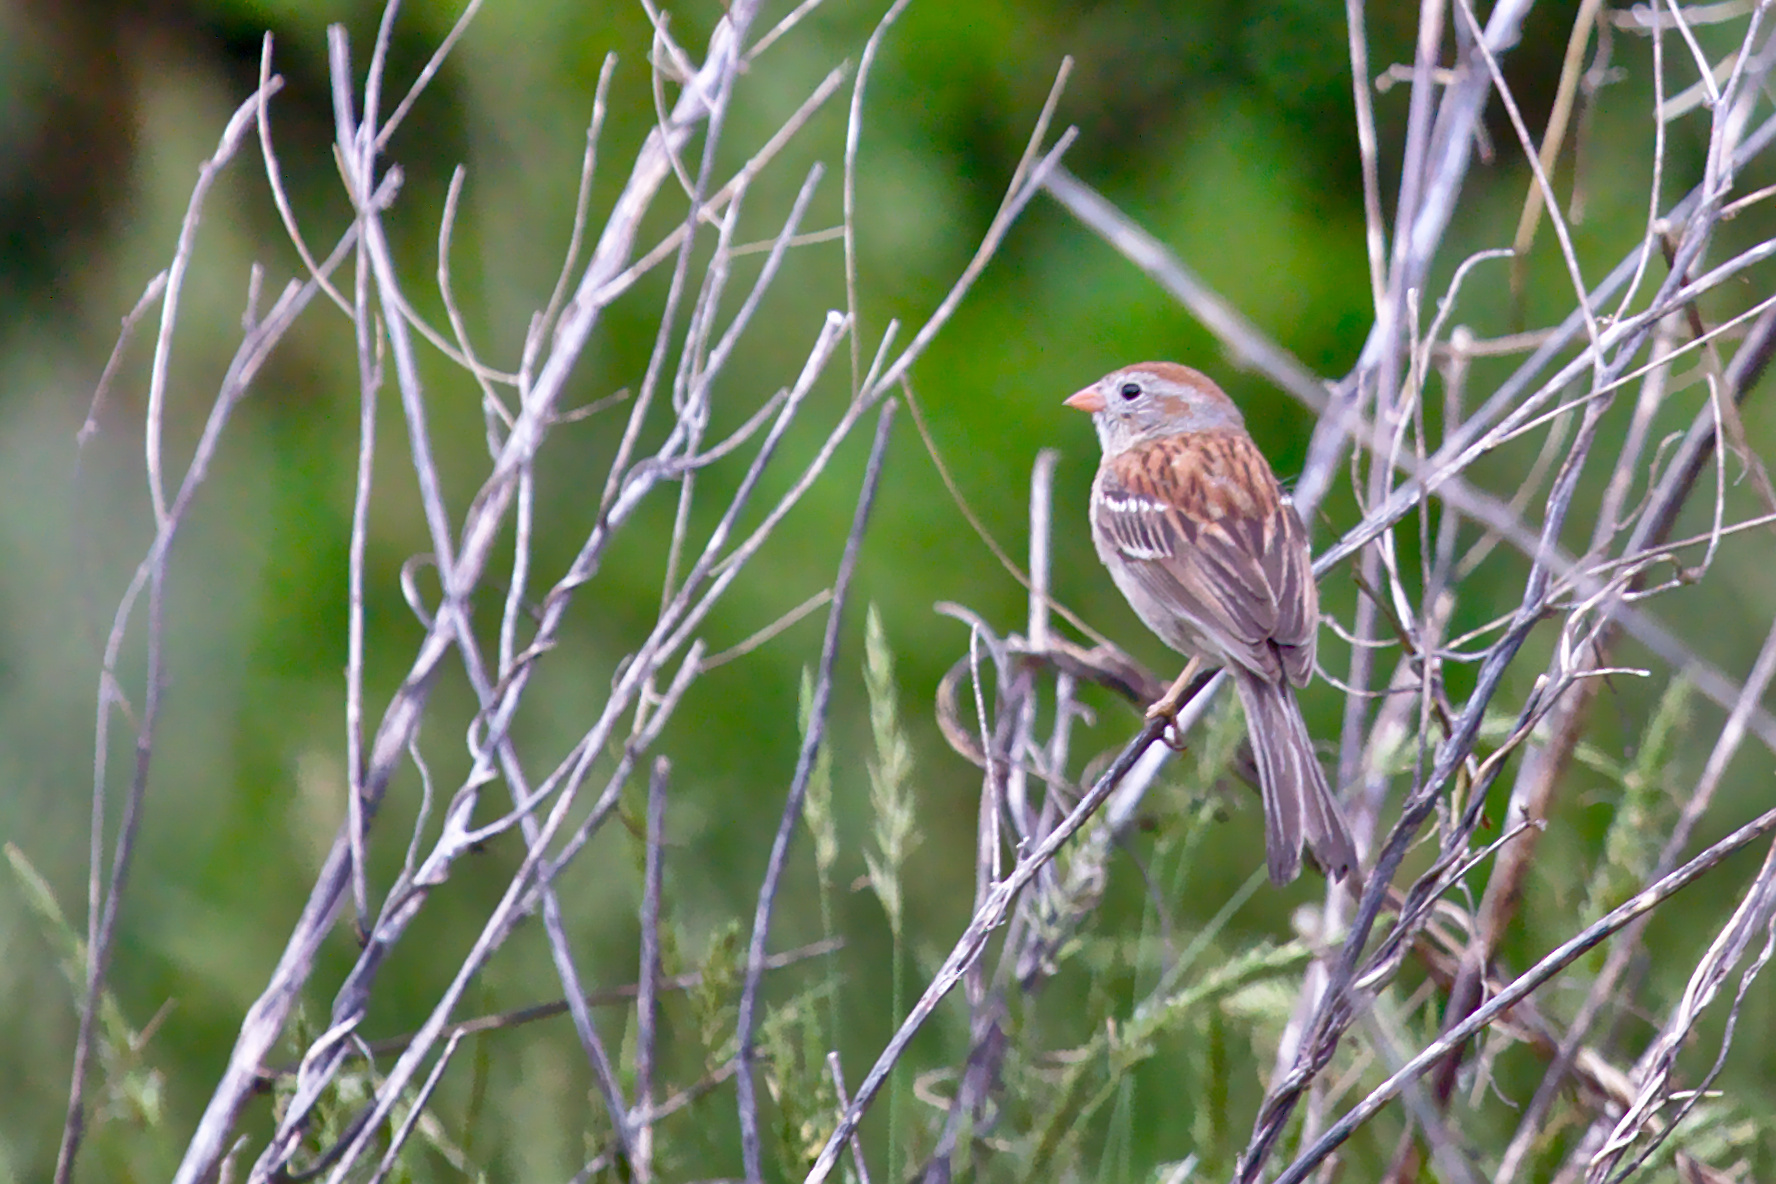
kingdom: Animalia
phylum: Chordata
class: Aves
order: Passeriformes
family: Passerellidae
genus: Spizella
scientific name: Spizella pusilla
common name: Field sparrow
